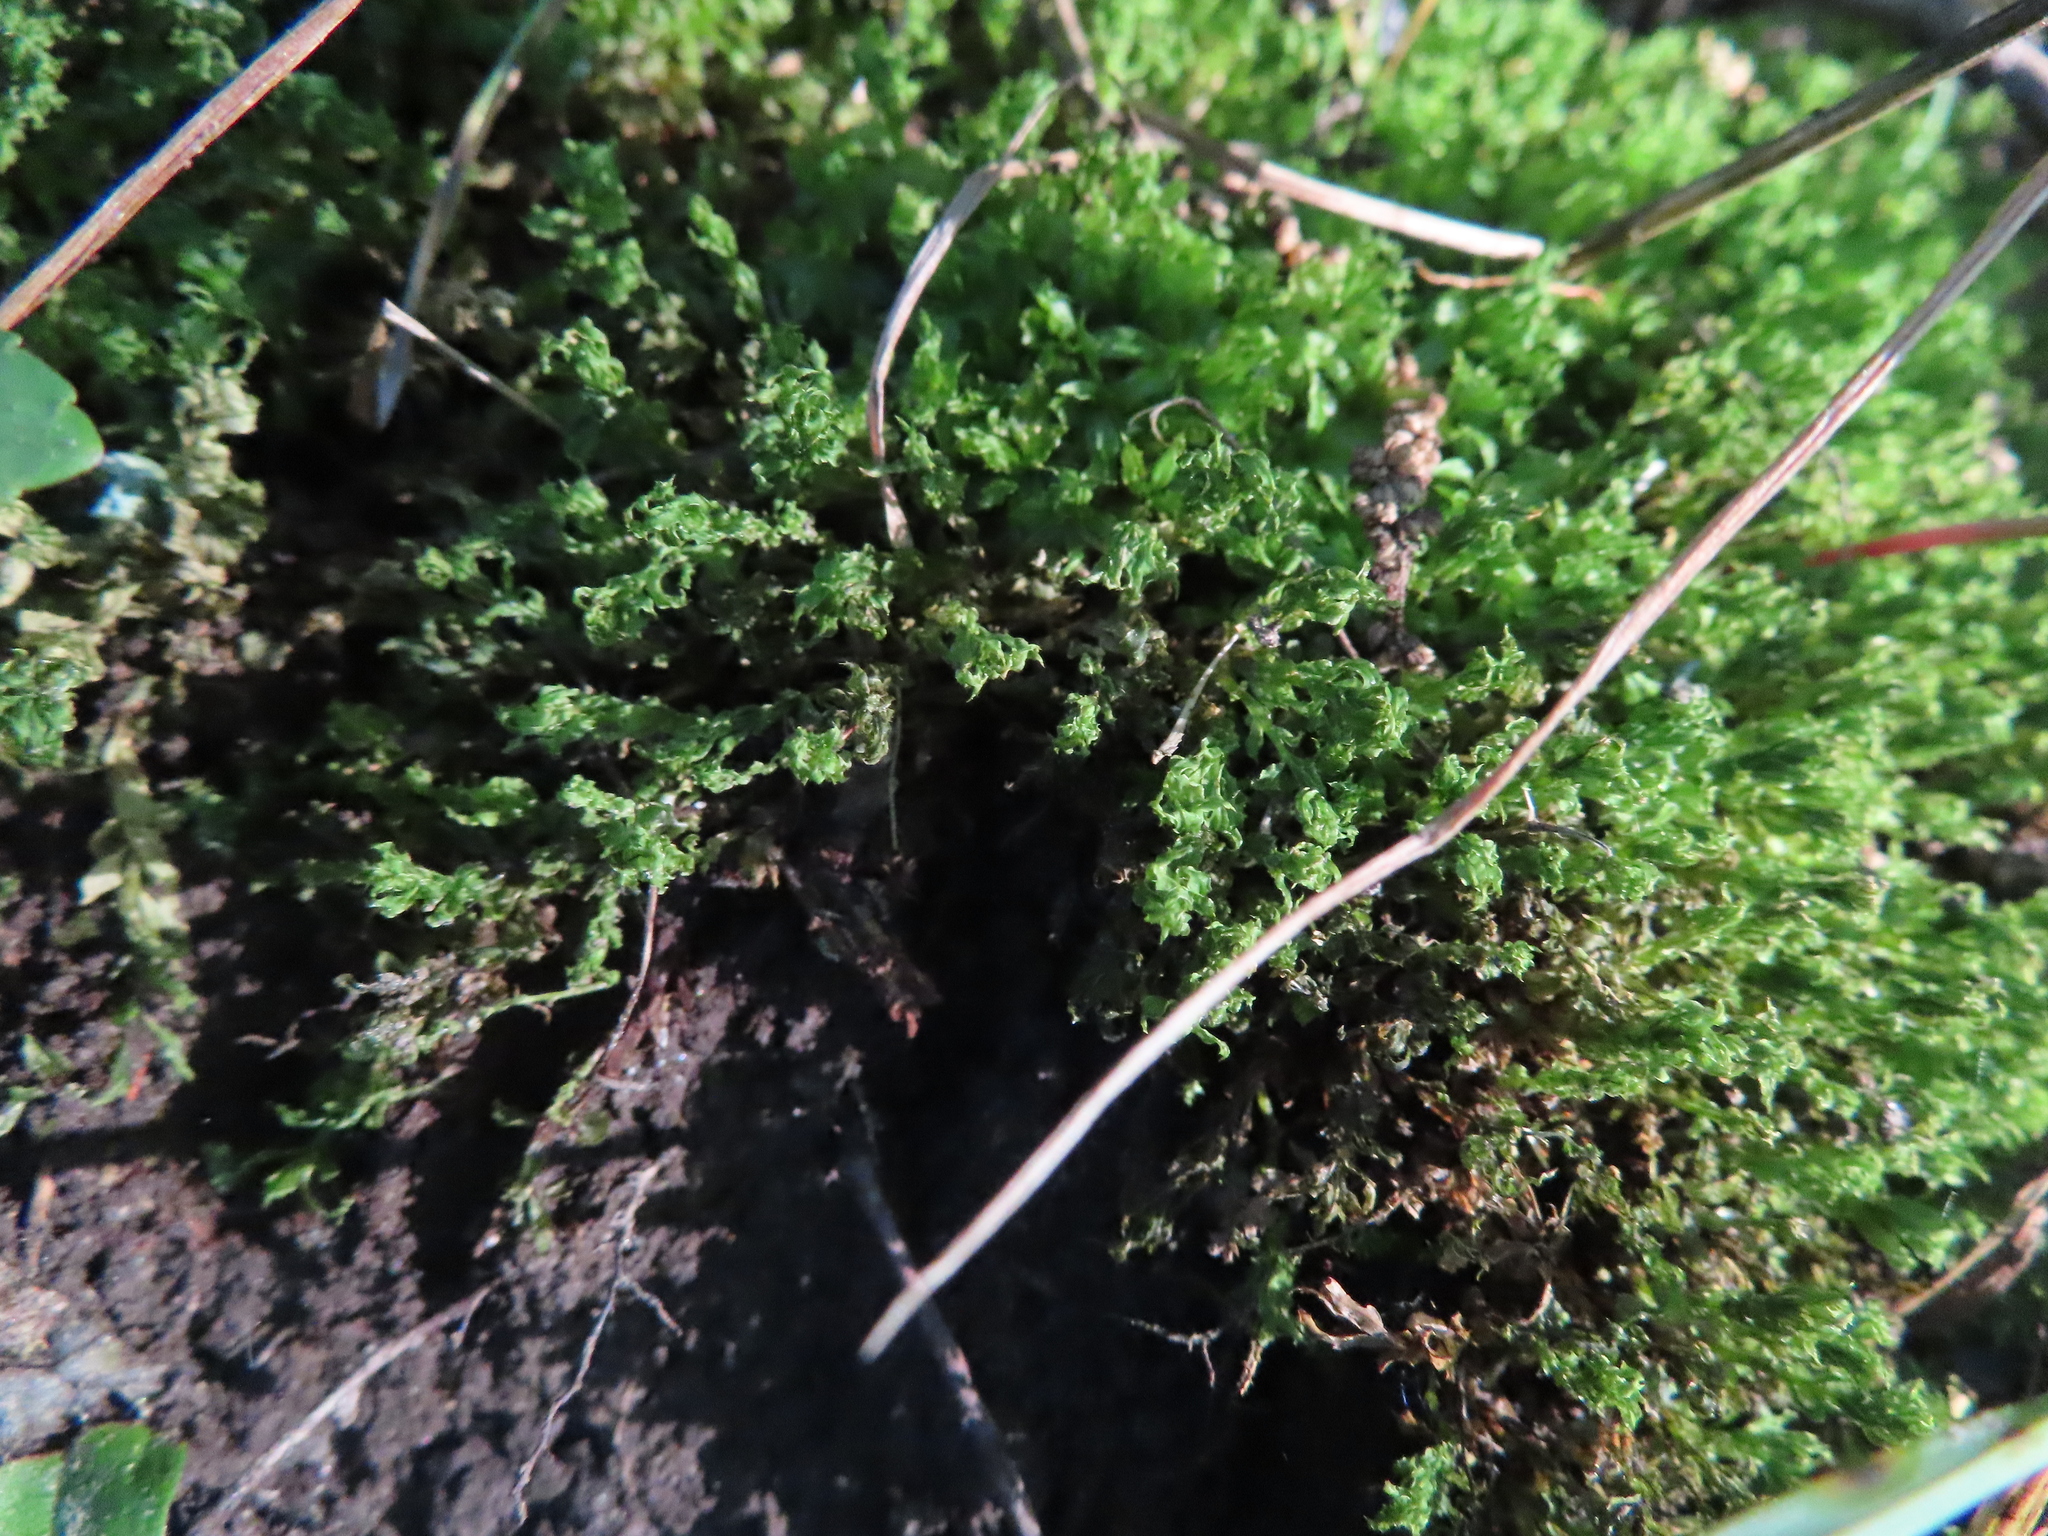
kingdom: Plantae
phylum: Bryophyta
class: Bryopsida
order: Bryales
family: Mniaceae
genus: Plagiomnium
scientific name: Plagiomnium
